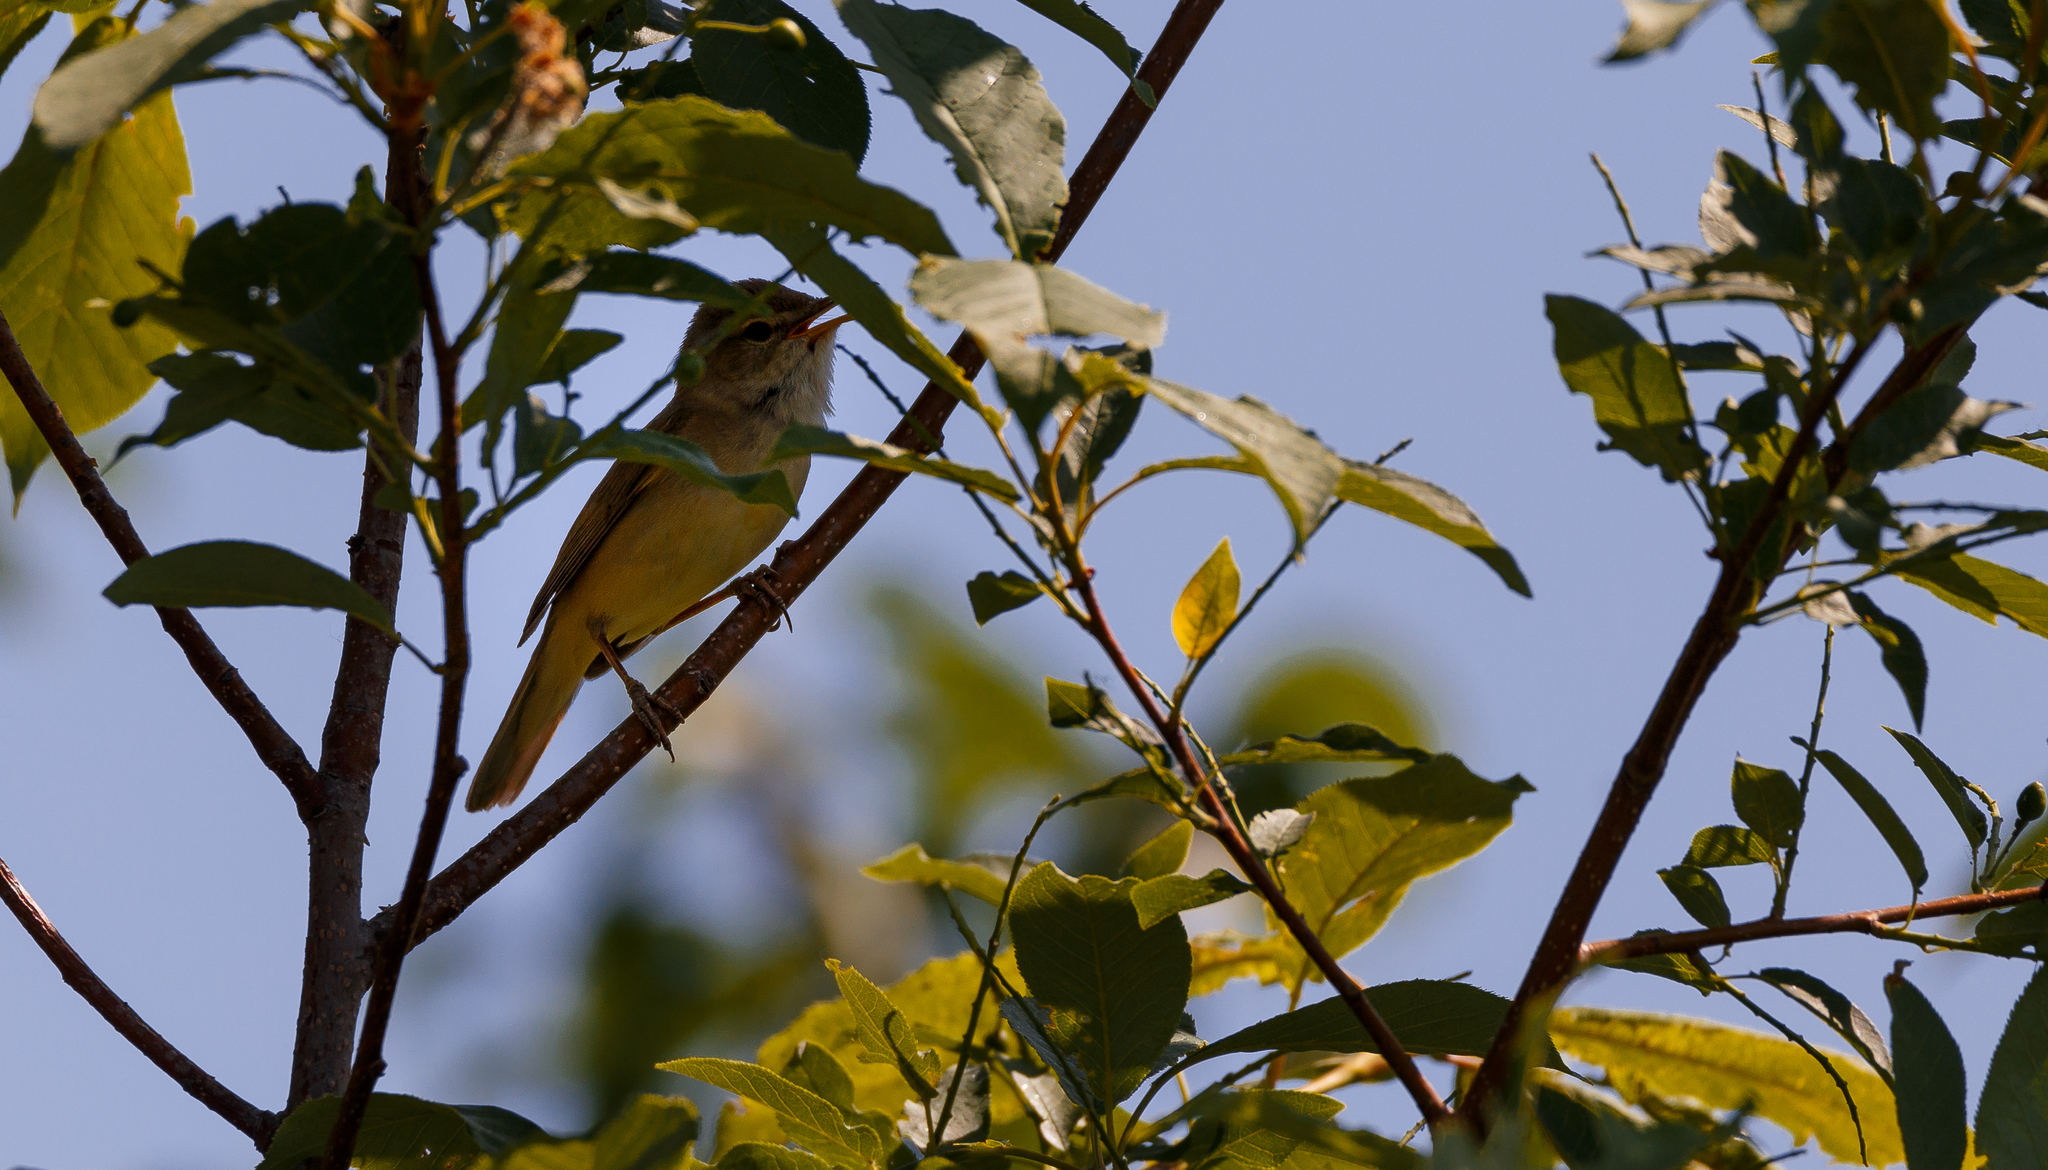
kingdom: Animalia
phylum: Chordata
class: Aves
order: Passeriformes
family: Acrocephalidae
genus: Acrocephalus
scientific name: Acrocephalus dumetorum
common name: Blyth's reed warbler
